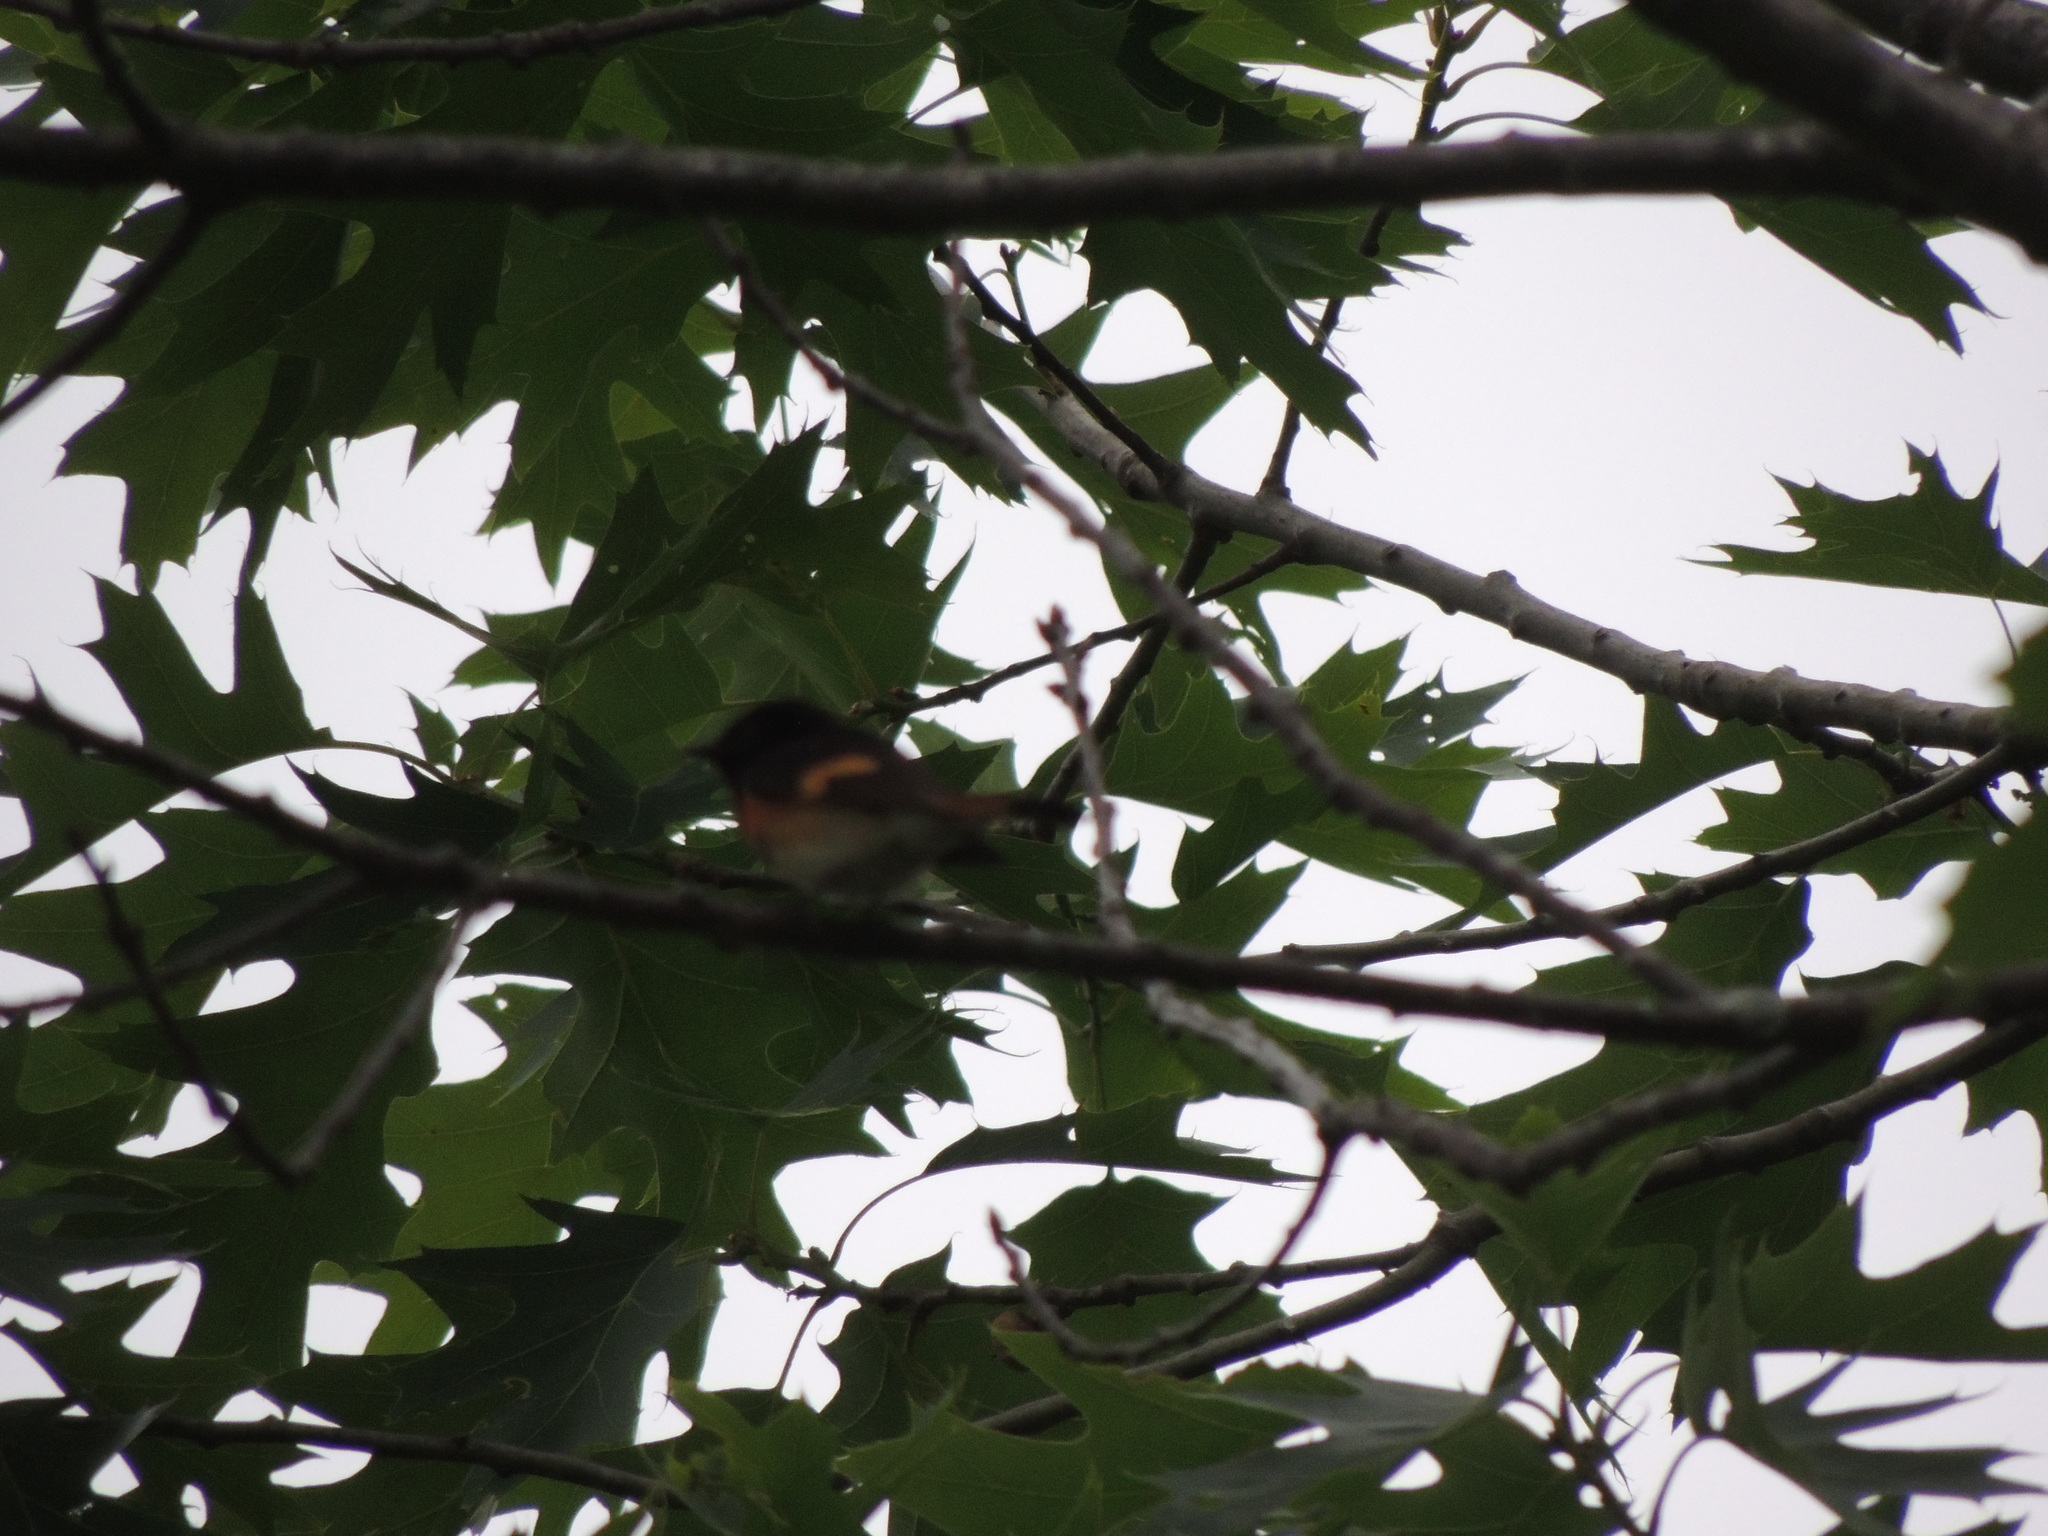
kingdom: Animalia
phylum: Chordata
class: Aves
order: Passeriformes
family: Parulidae
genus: Setophaga
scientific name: Setophaga ruticilla
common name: American redstart
